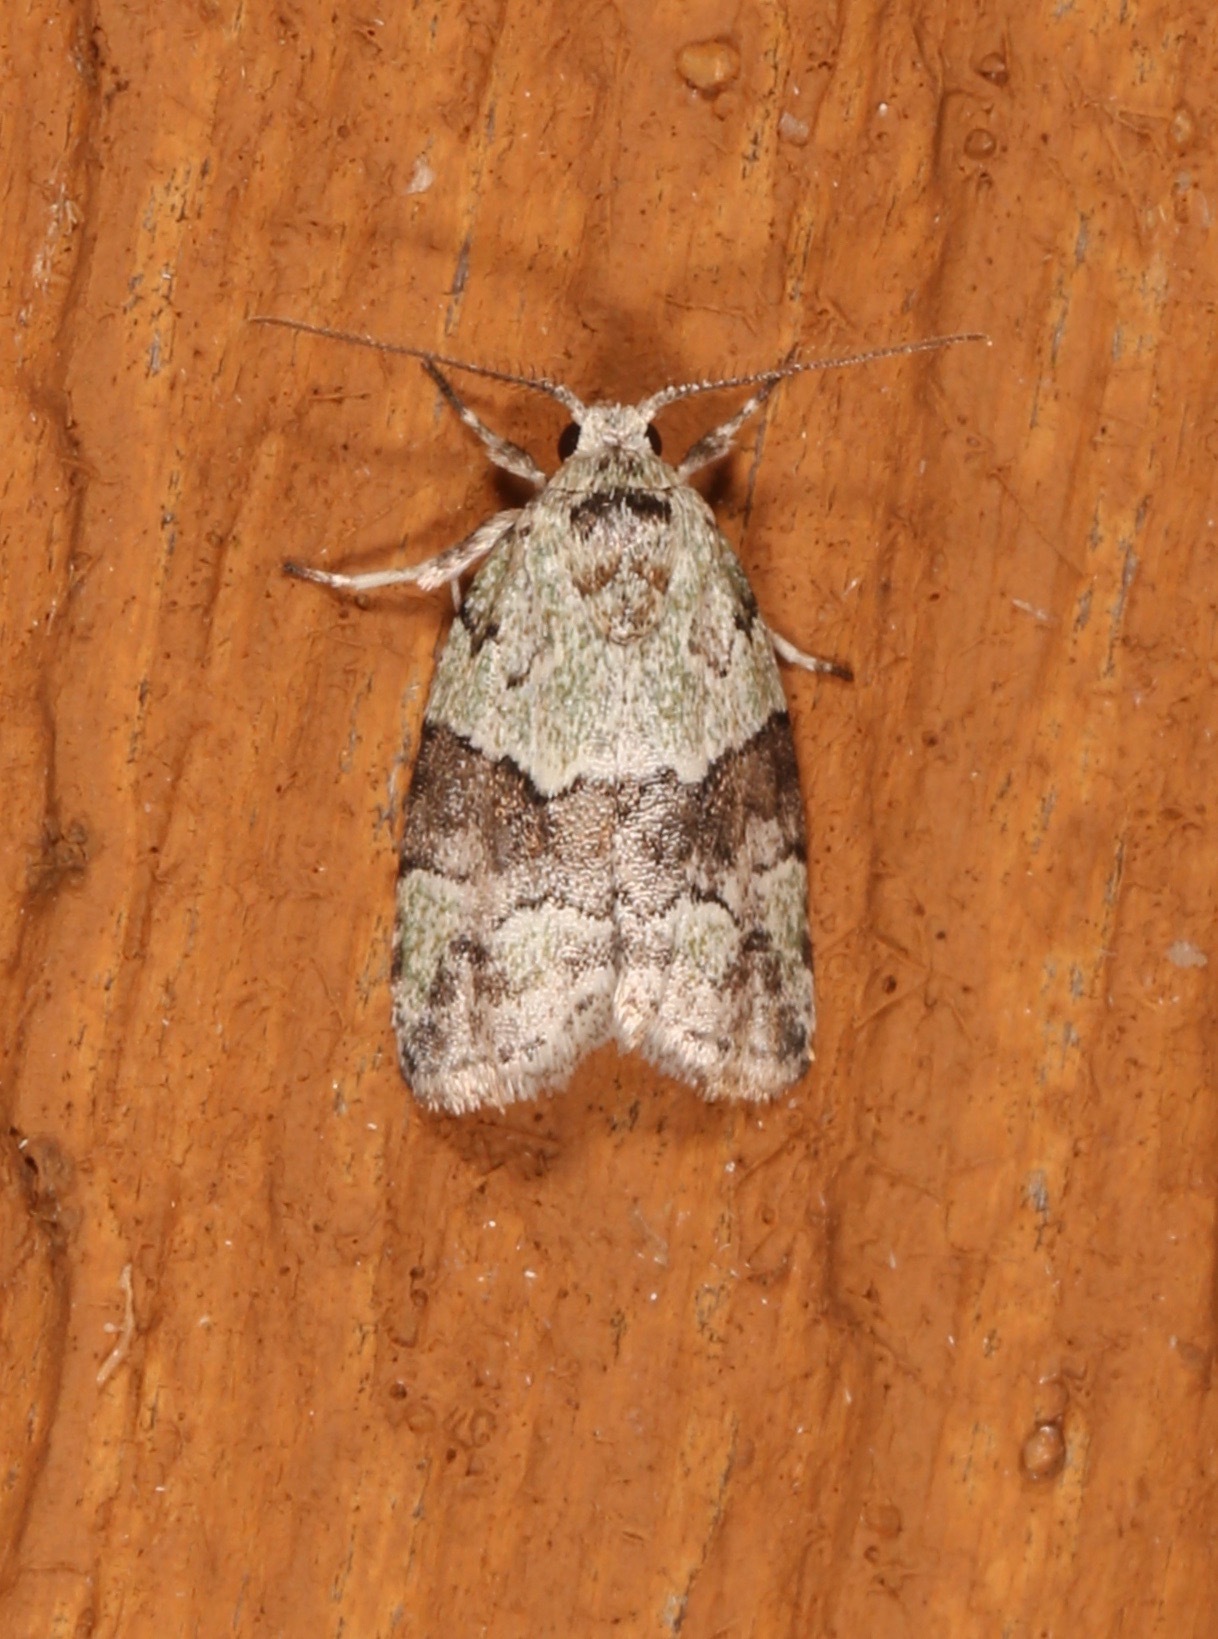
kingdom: Animalia
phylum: Arthropoda
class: Insecta
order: Lepidoptera
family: Nolidae
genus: Afrida
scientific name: Afrida ydatodes
